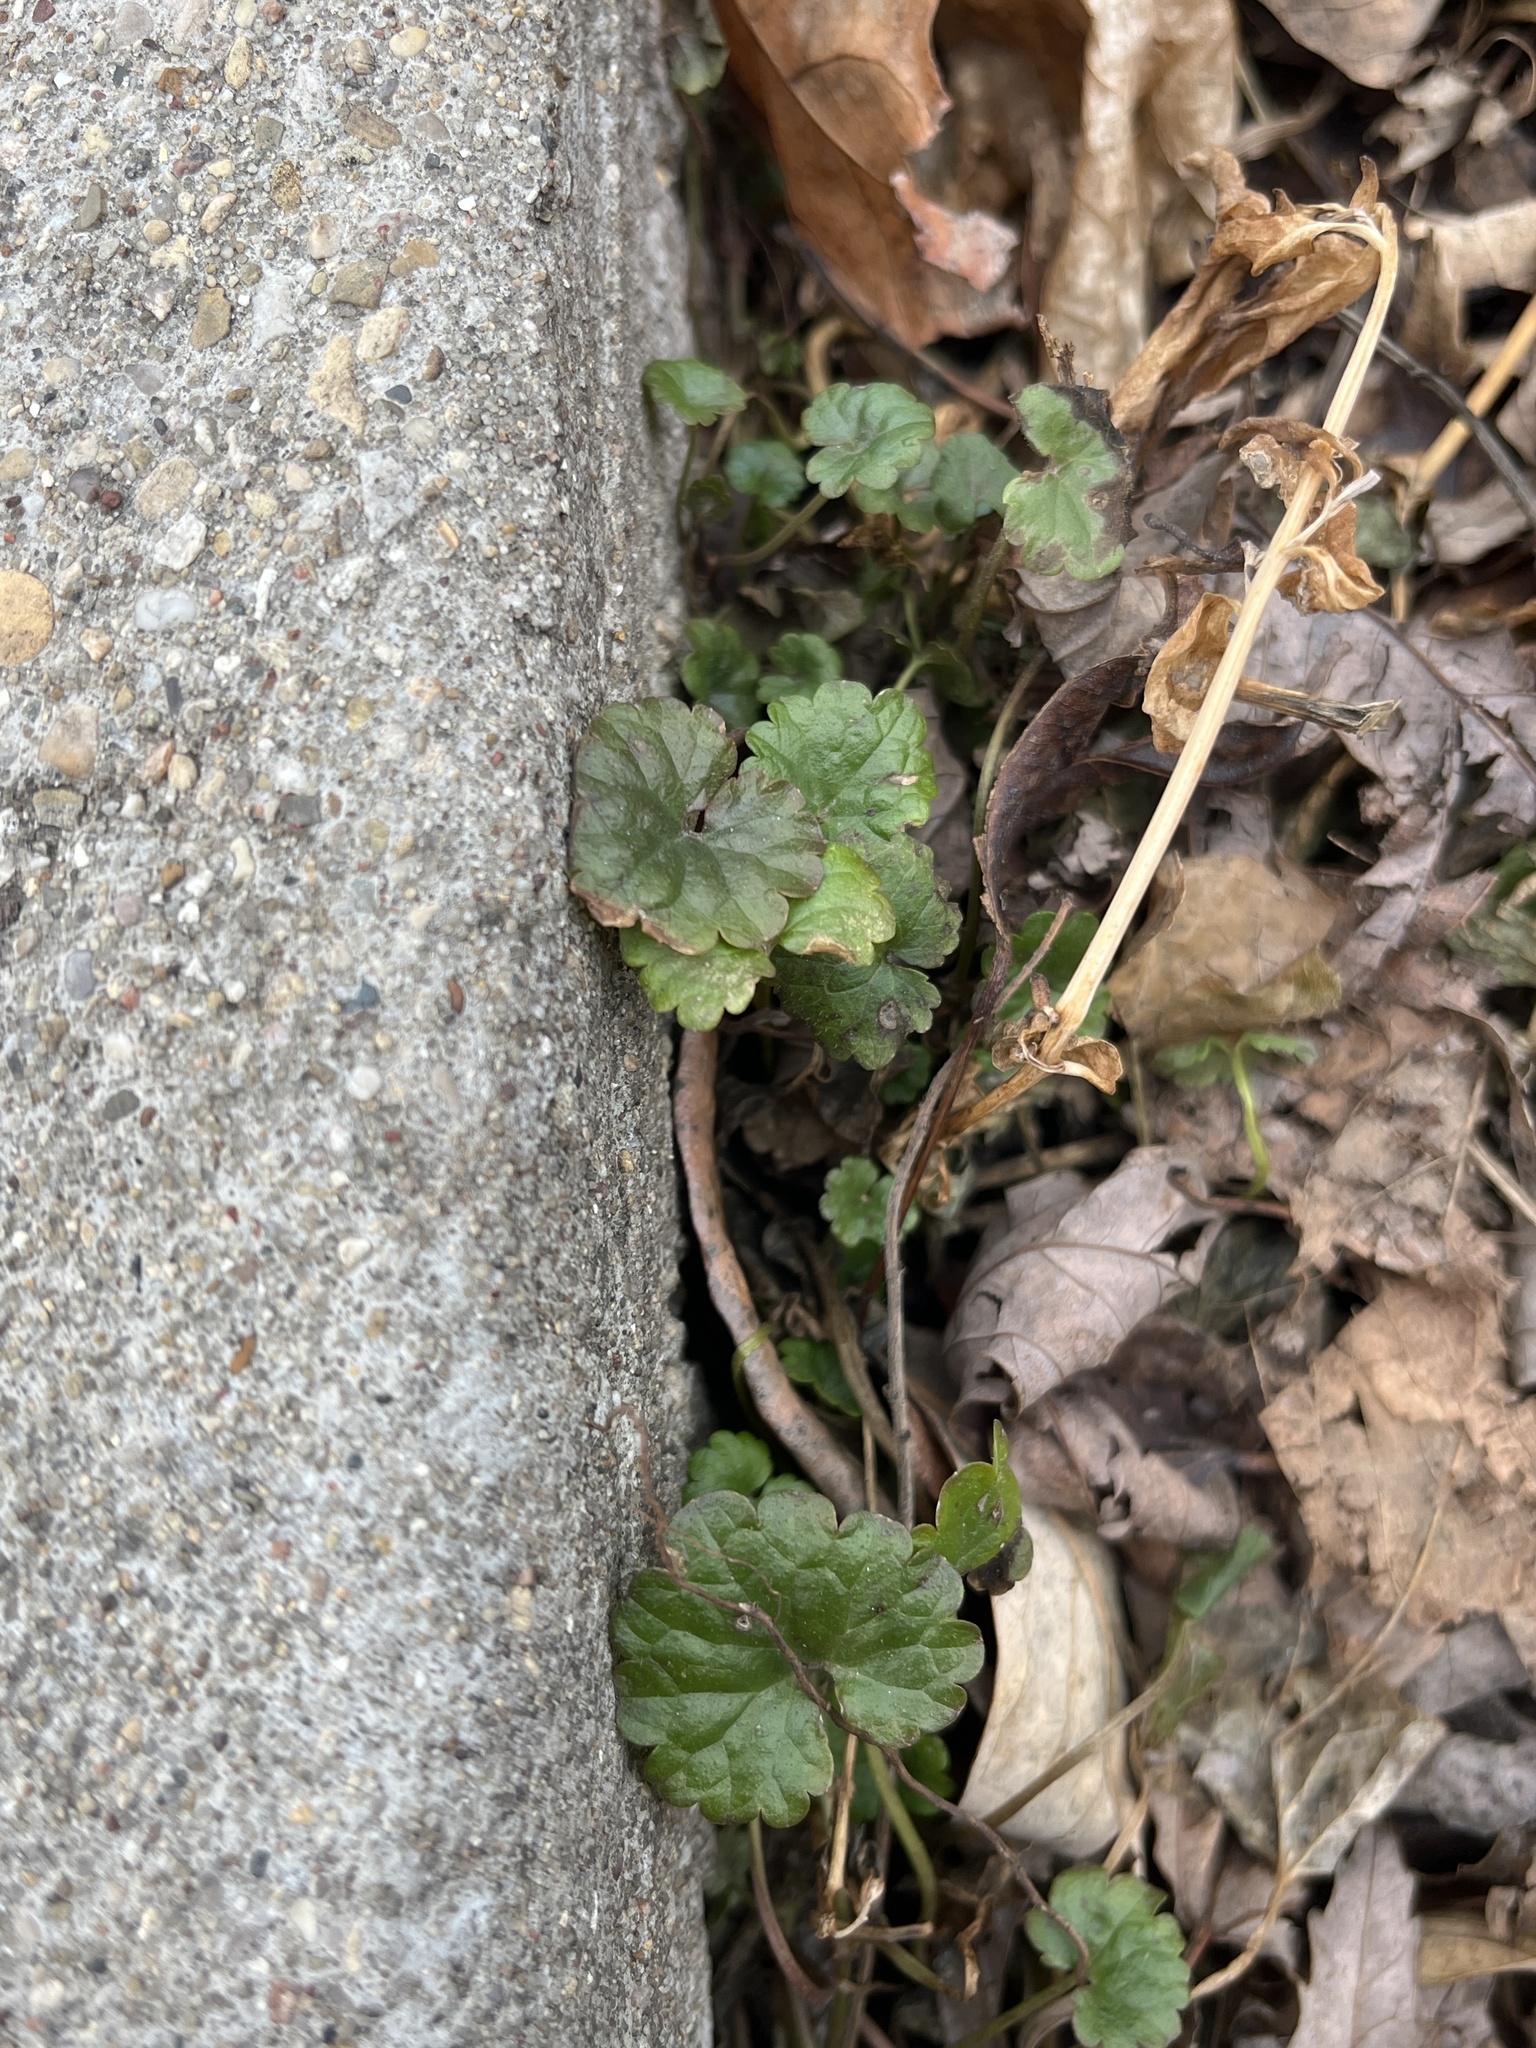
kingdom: Plantae
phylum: Tracheophyta
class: Magnoliopsida
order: Lamiales
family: Lamiaceae
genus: Glechoma
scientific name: Glechoma hederacea
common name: Ground ivy
